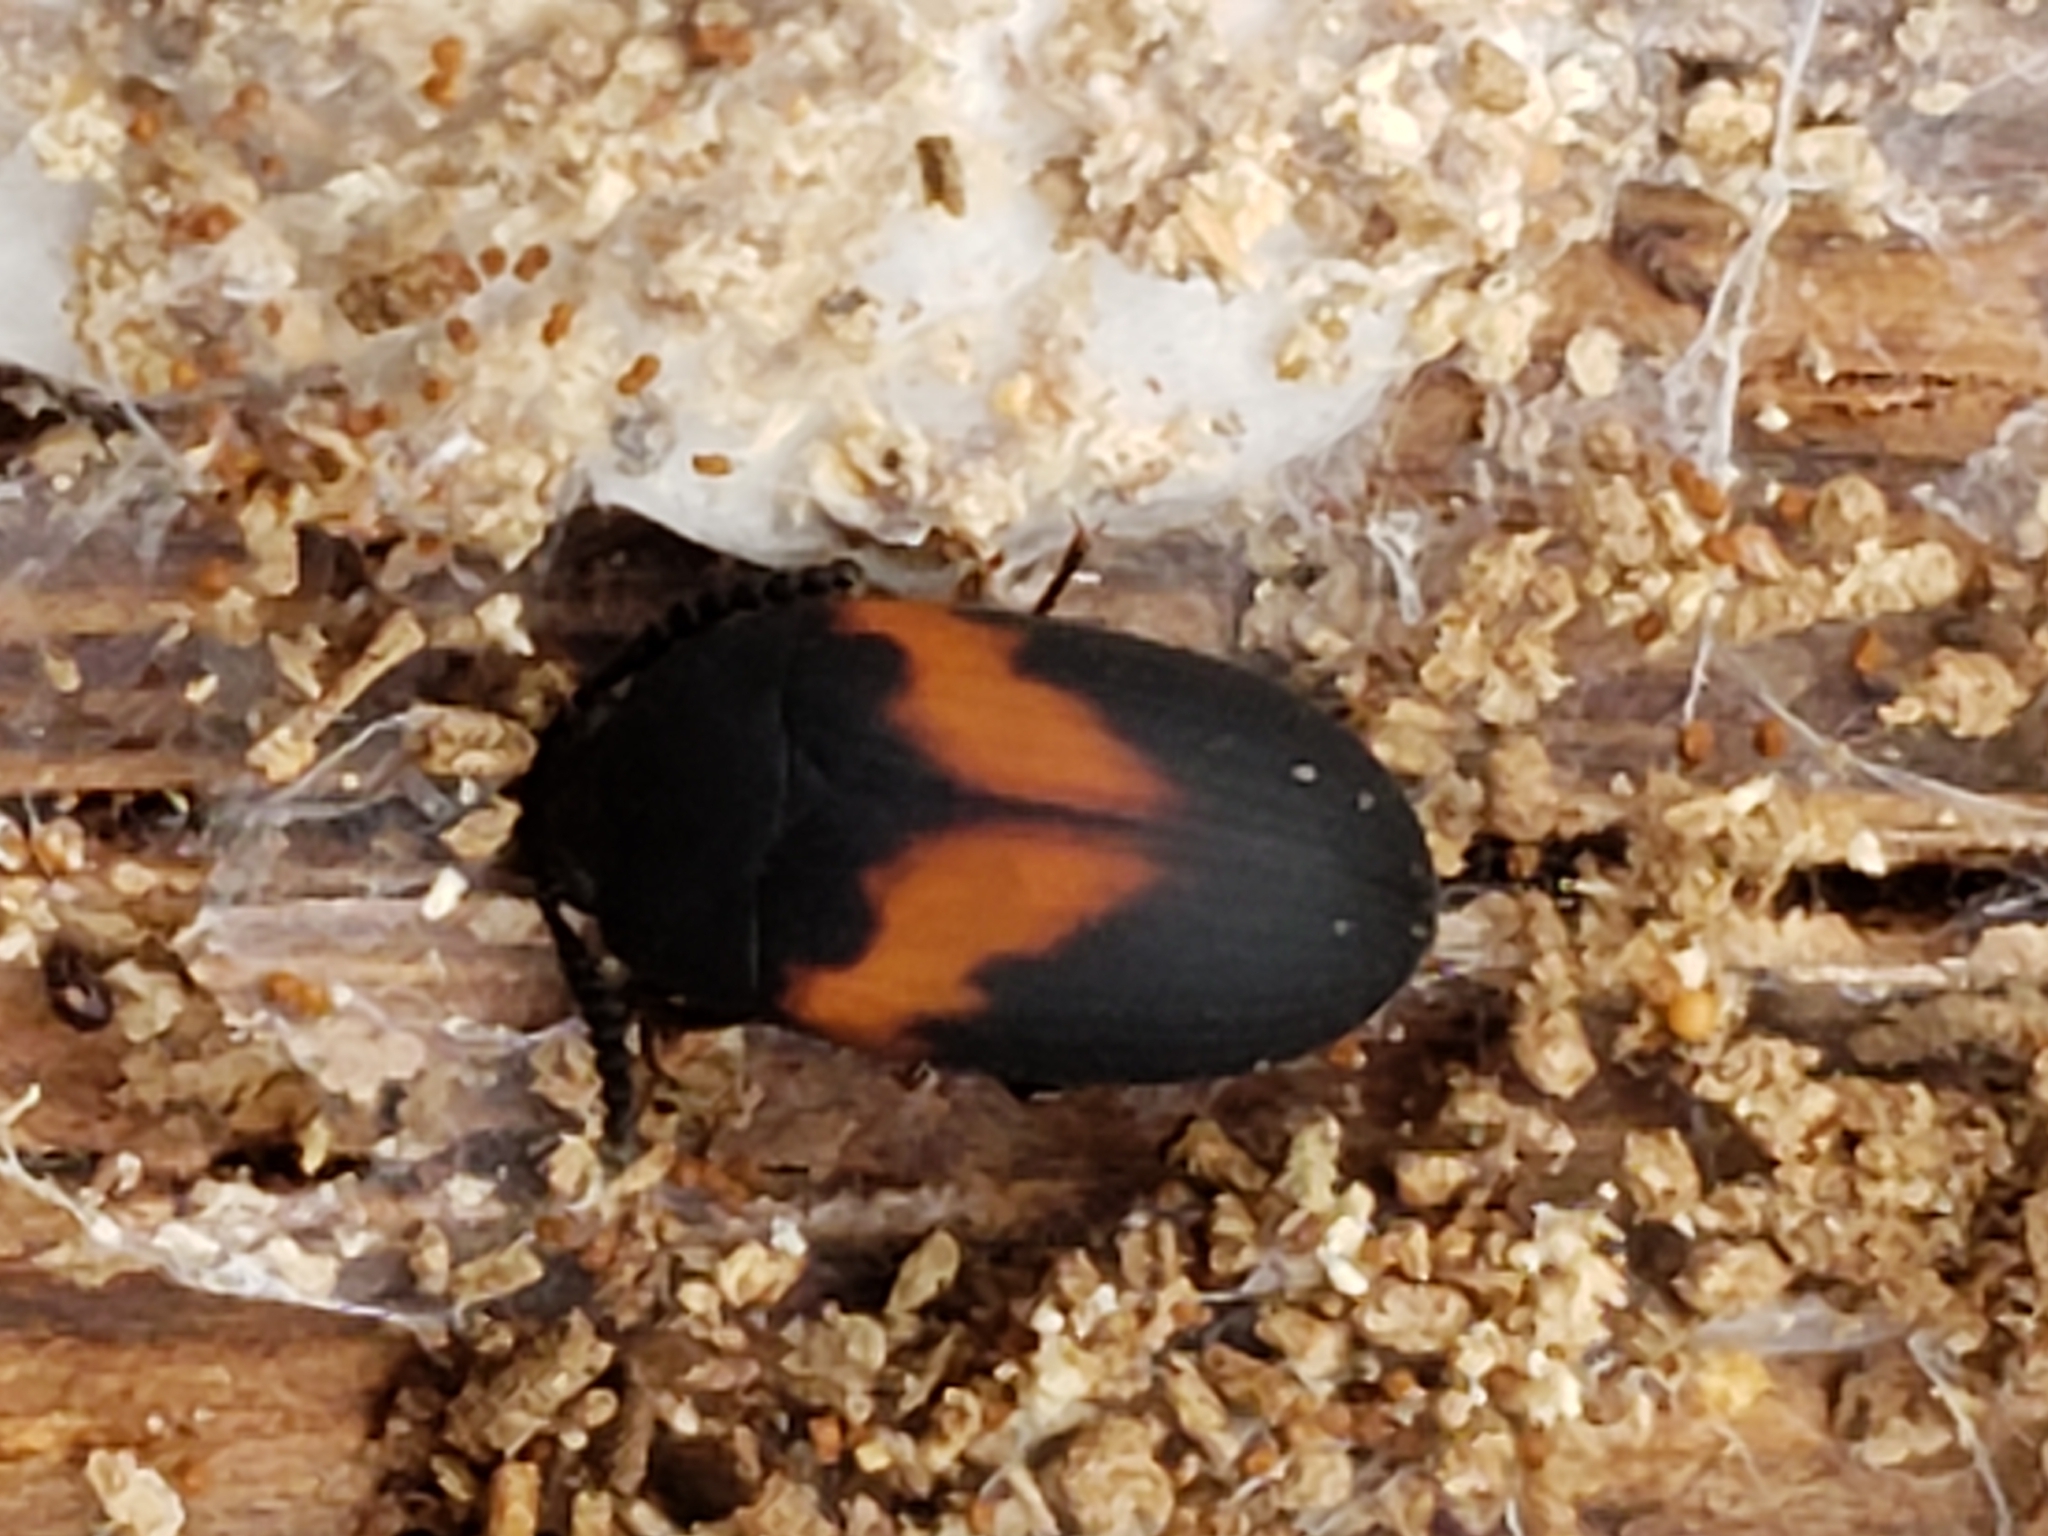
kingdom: Animalia
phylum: Arthropoda
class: Insecta
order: Coleoptera
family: Tenebrionidae
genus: Platydema
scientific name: Platydema elliptica
